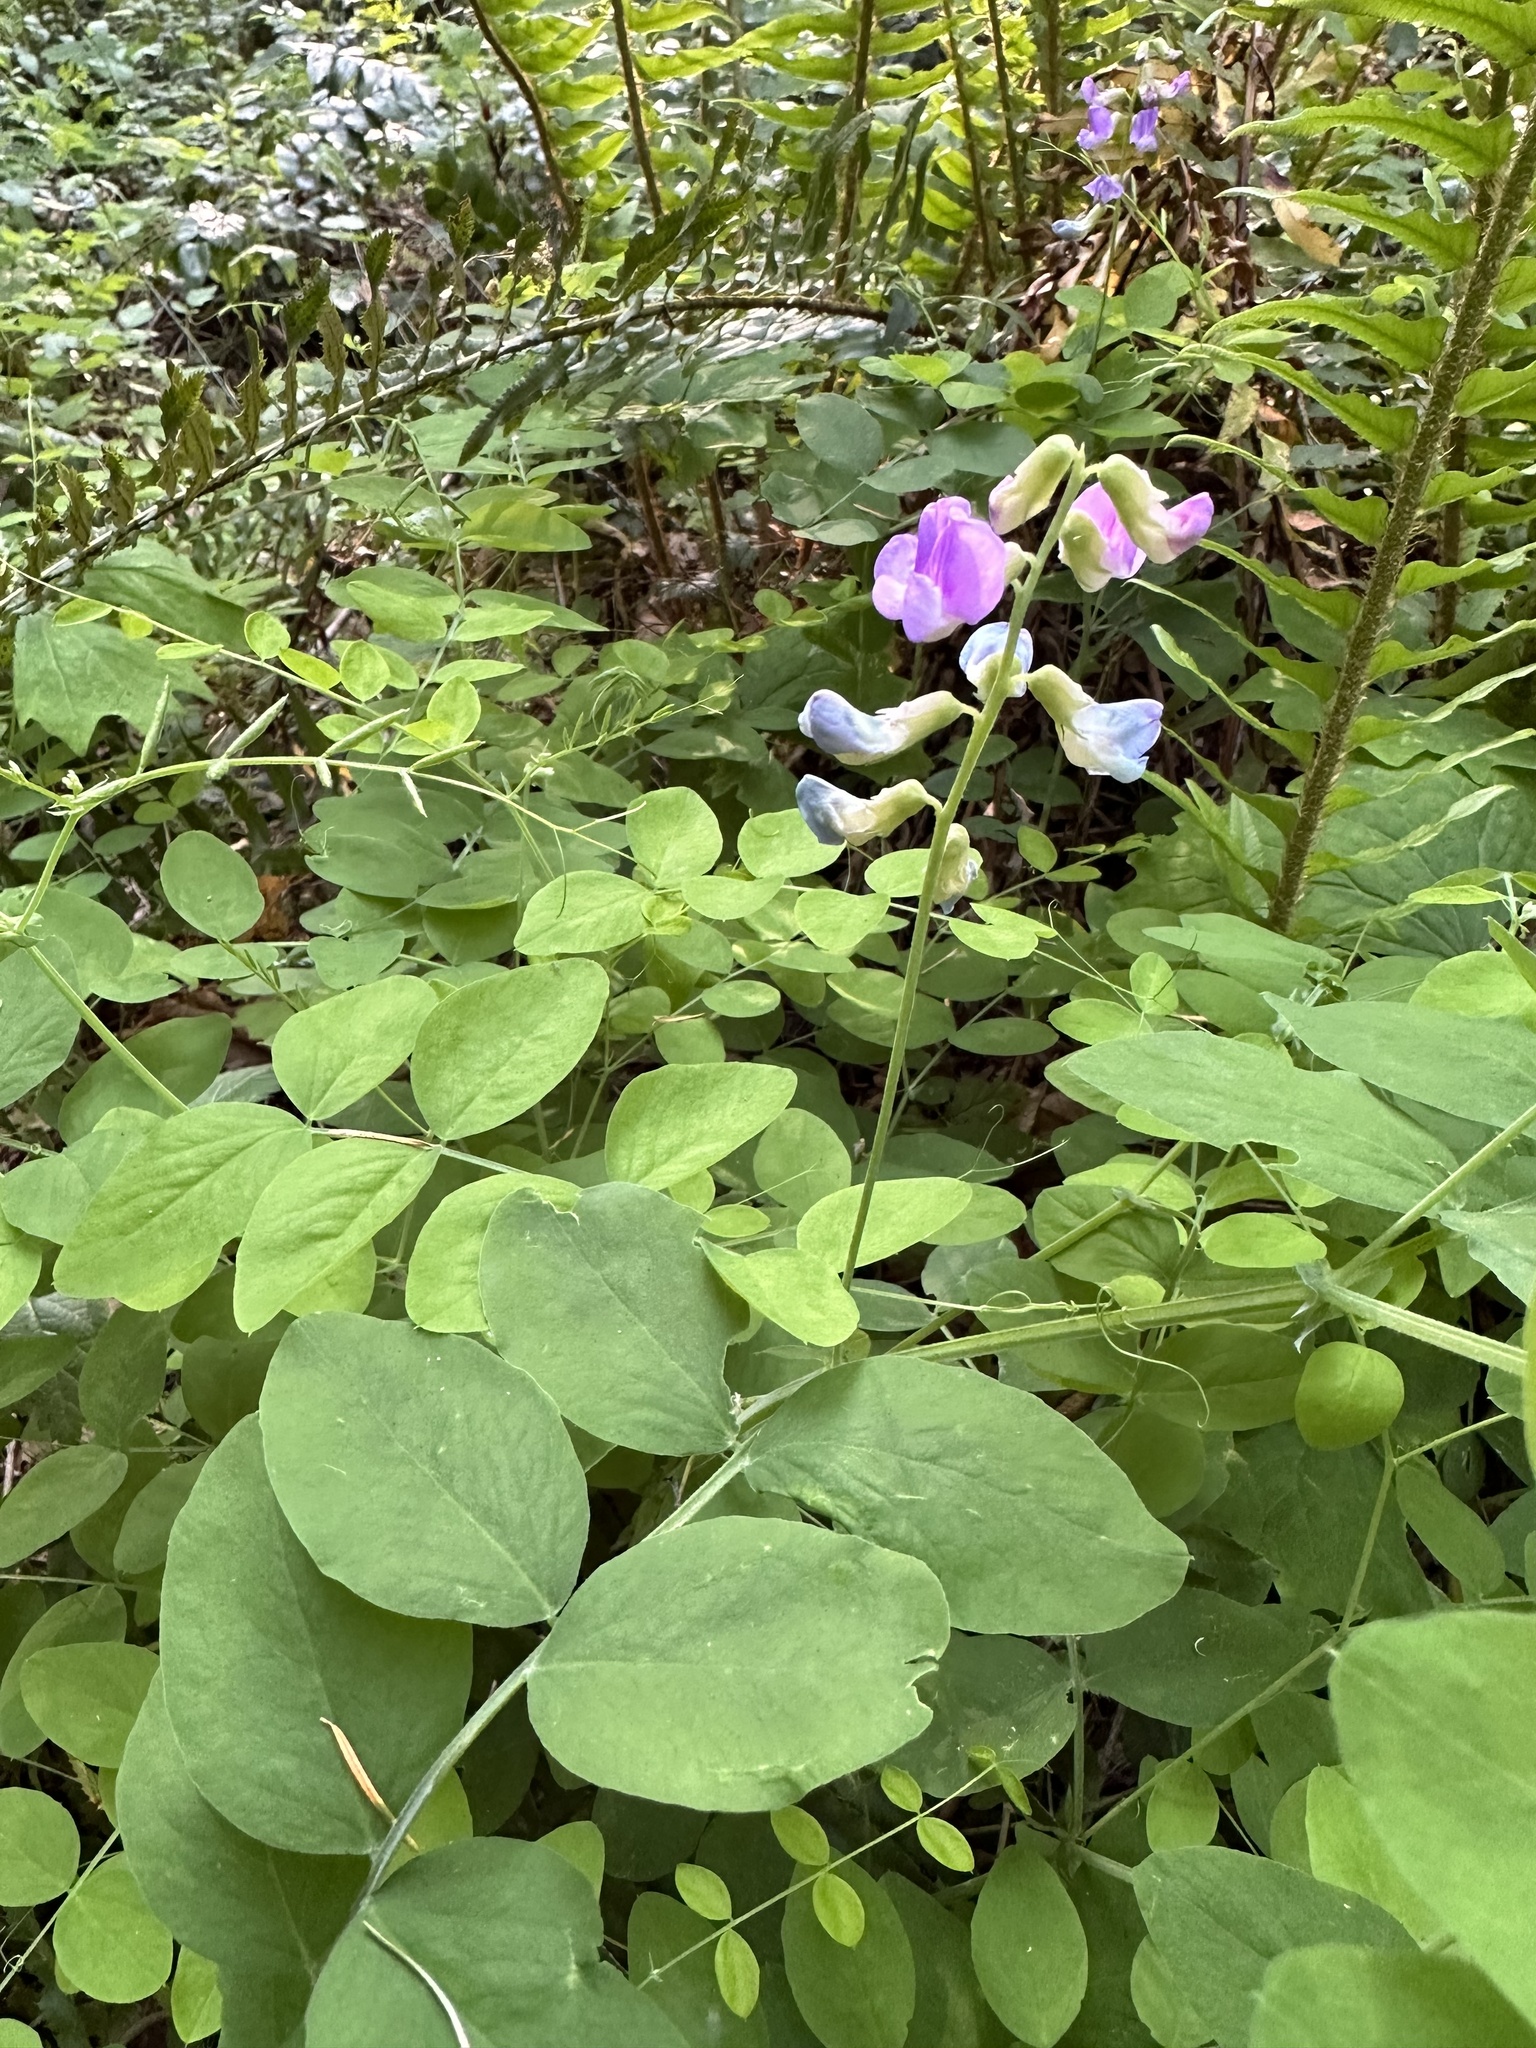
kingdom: Plantae
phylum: Tracheophyta
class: Magnoliopsida
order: Fabales
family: Fabaceae
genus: Lathyrus
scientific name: Lathyrus nevadensis
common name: Sierra nevada peavine
